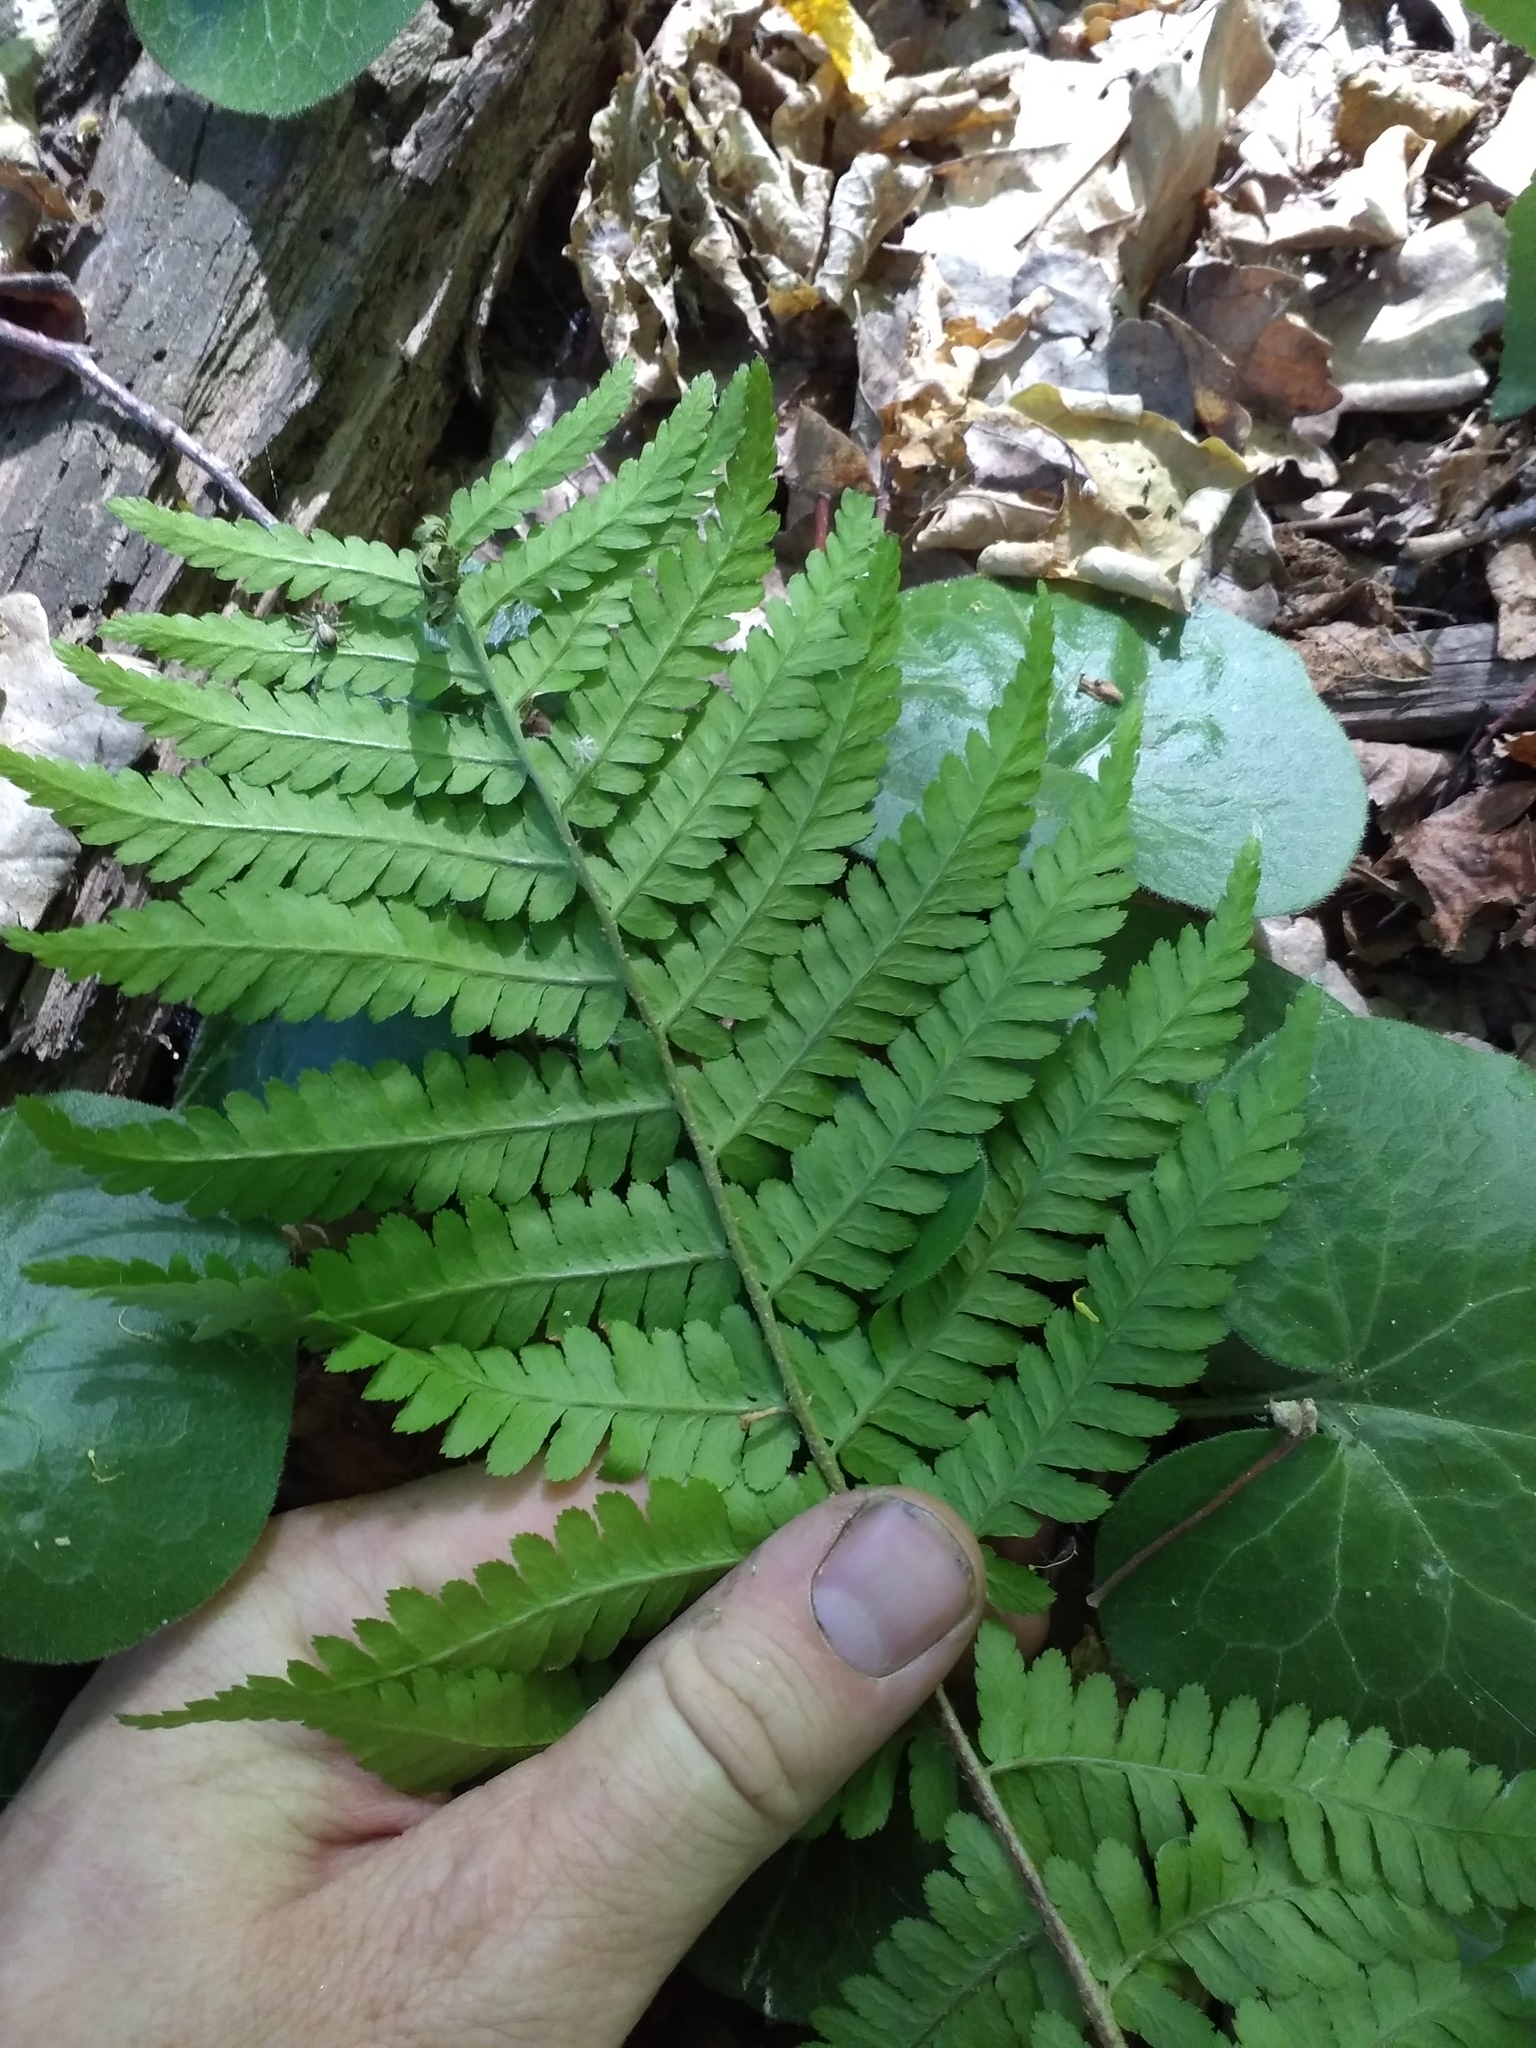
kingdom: Plantae
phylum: Tracheophyta
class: Polypodiopsida
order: Polypodiales
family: Dryopteridaceae
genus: Dryopteris
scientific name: Dryopteris filix-mas
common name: Male fern
